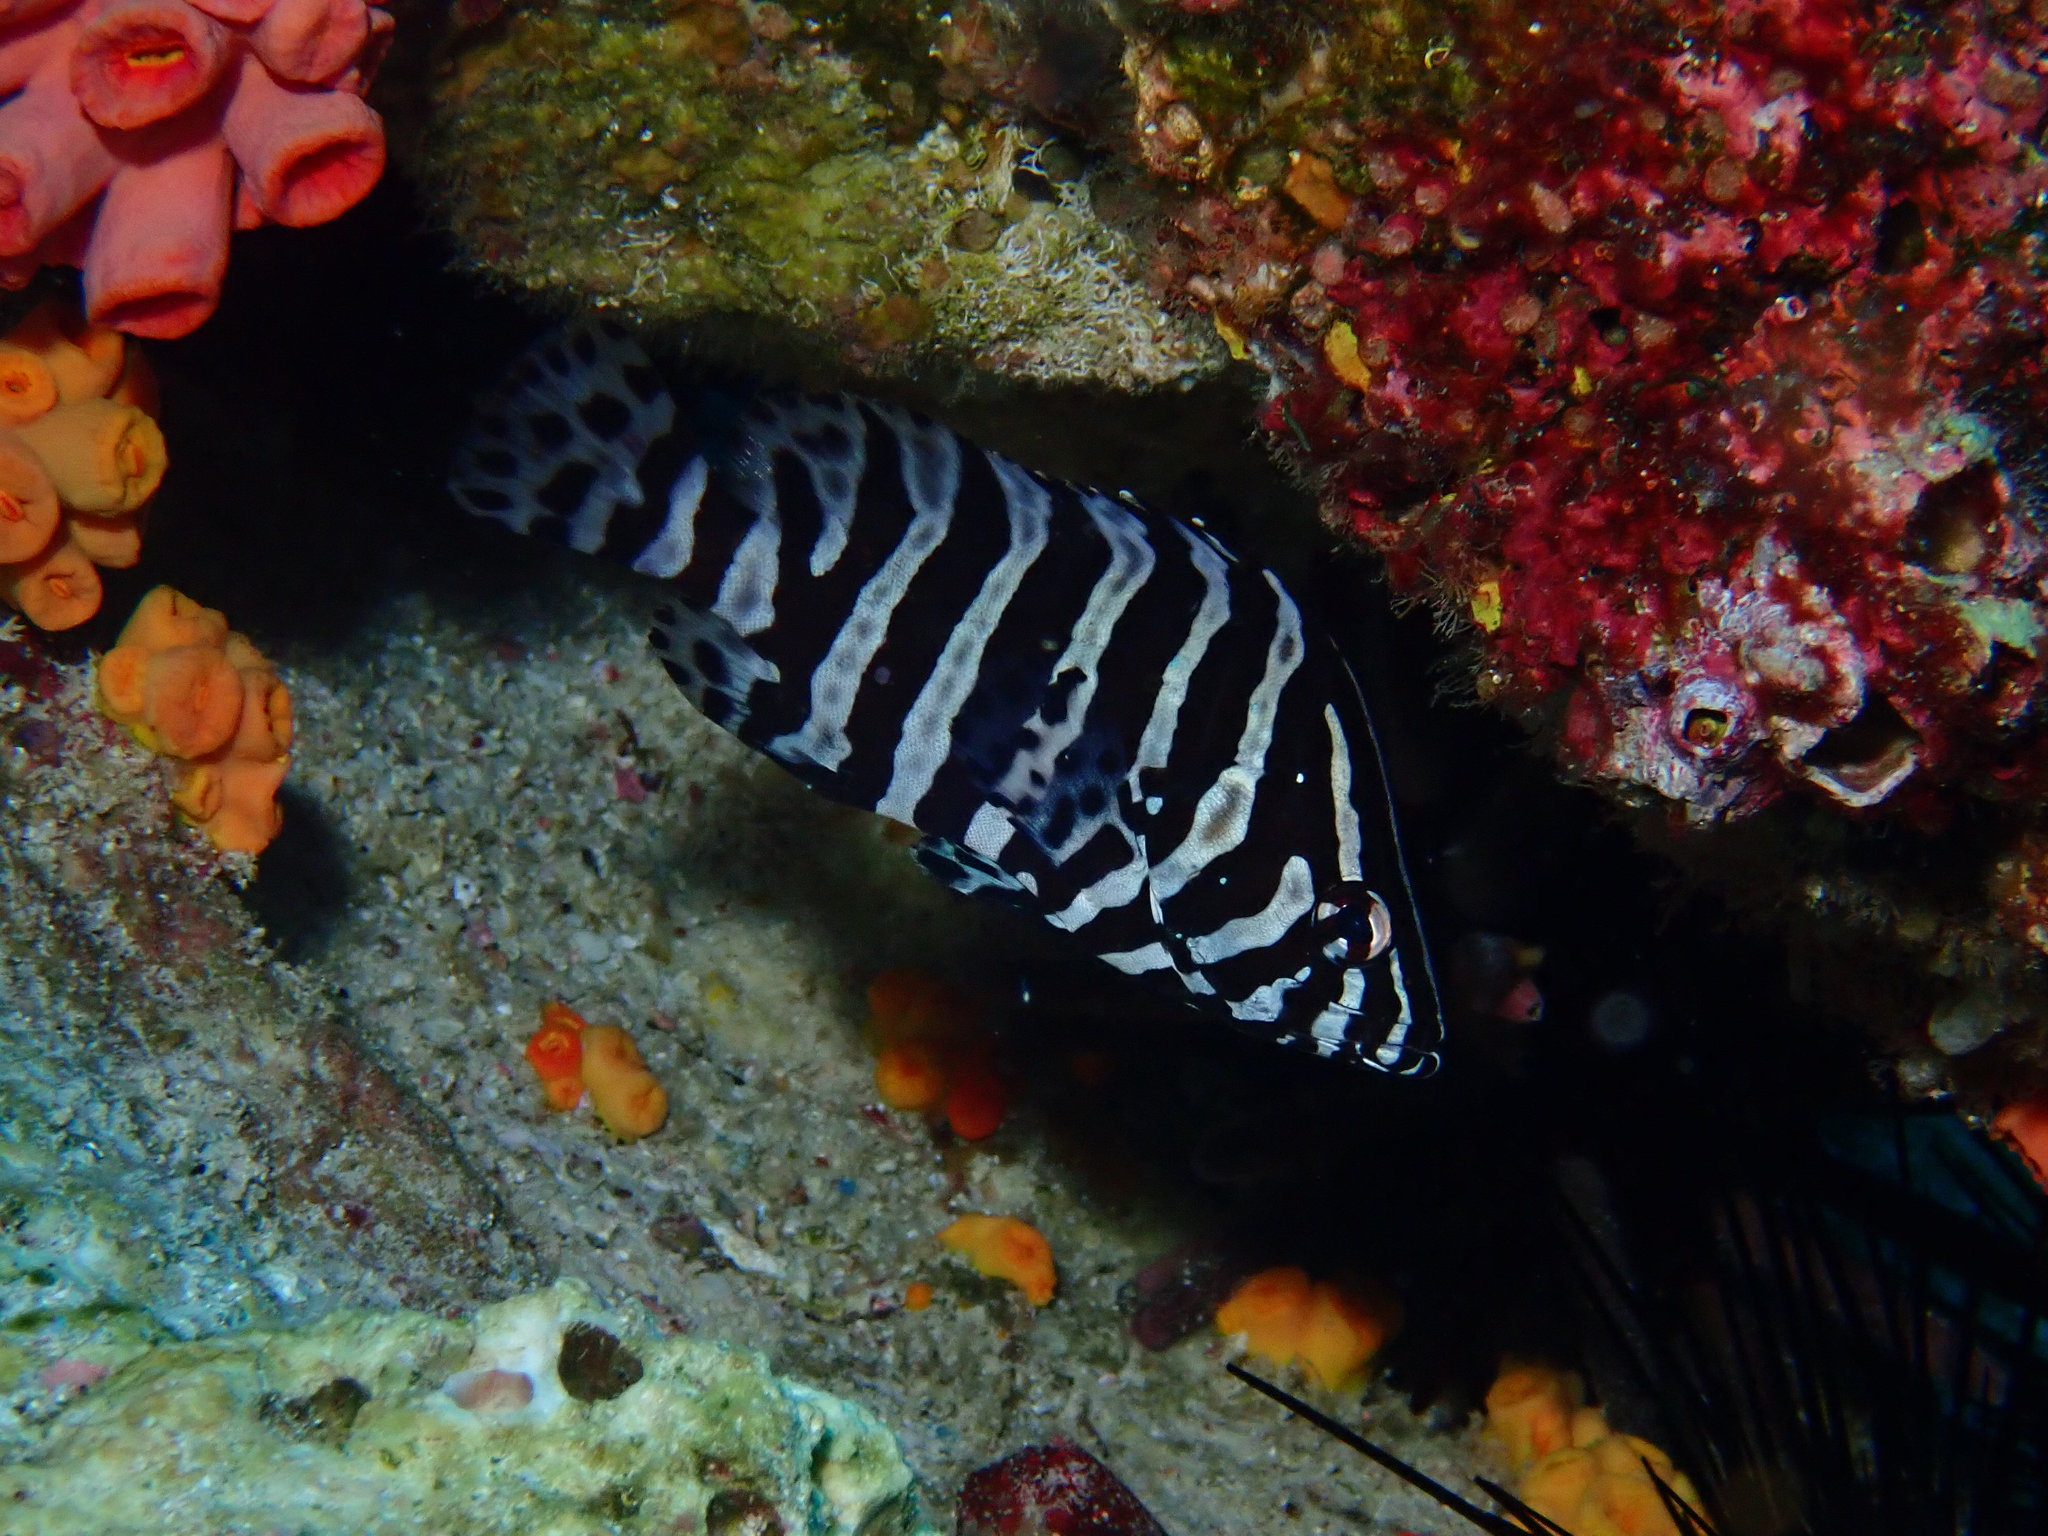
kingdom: Animalia
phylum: Chordata
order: Perciformes
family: Serranidae
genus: Dermatolepis
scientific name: Dermatolepis dermatolepis
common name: Leather bass
